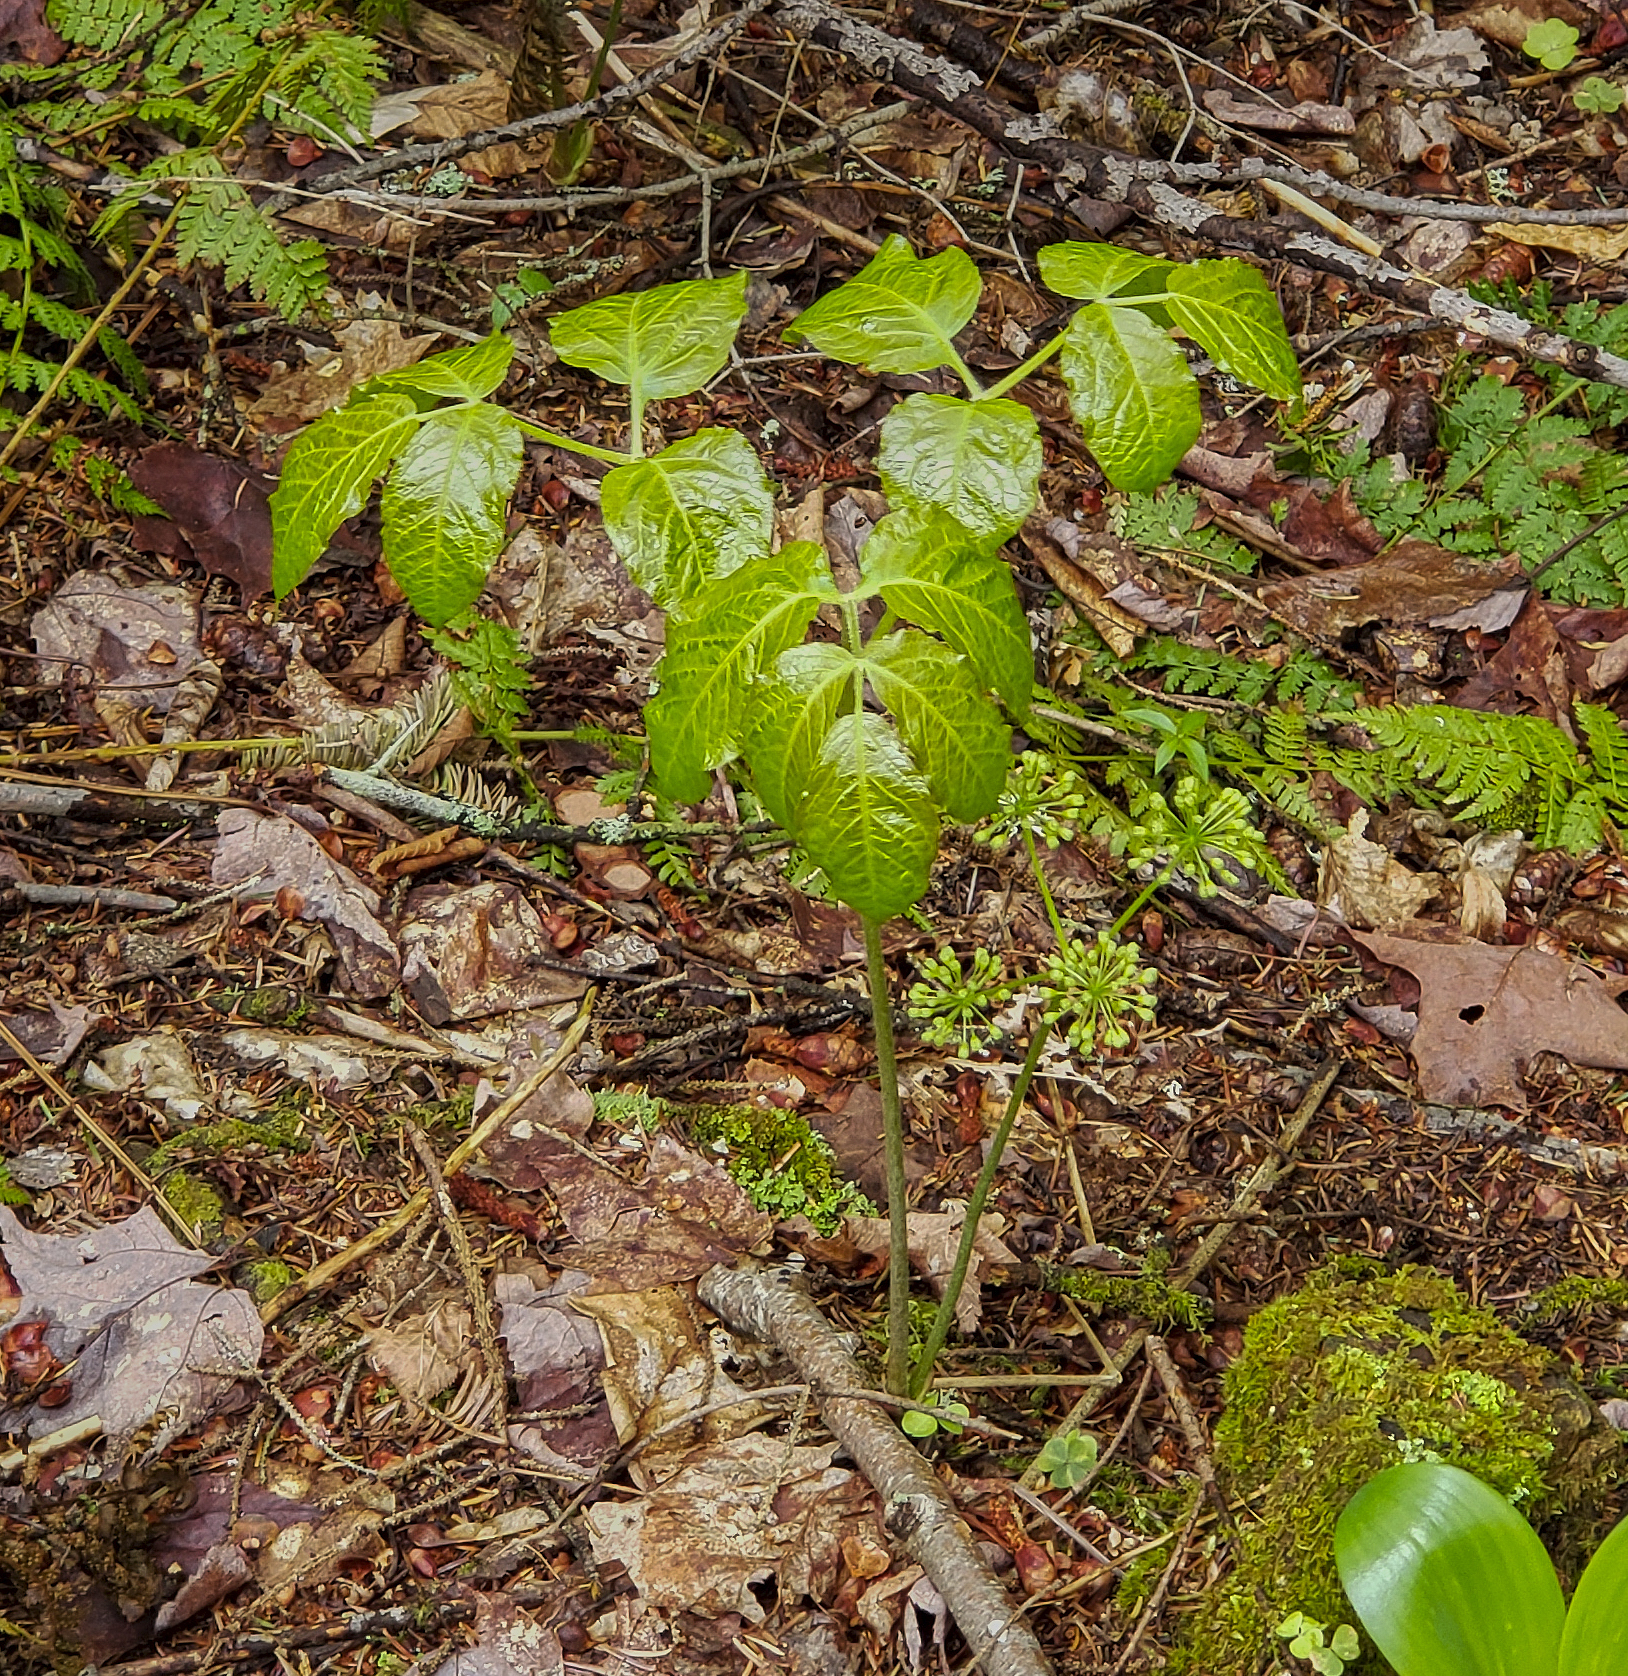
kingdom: Plantae
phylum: Tracheophyta
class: Magnoliopsida
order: Apiales
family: Araliaceae
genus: Aralia
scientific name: Aralia nudicaulis
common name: Wild sarsaparilla
